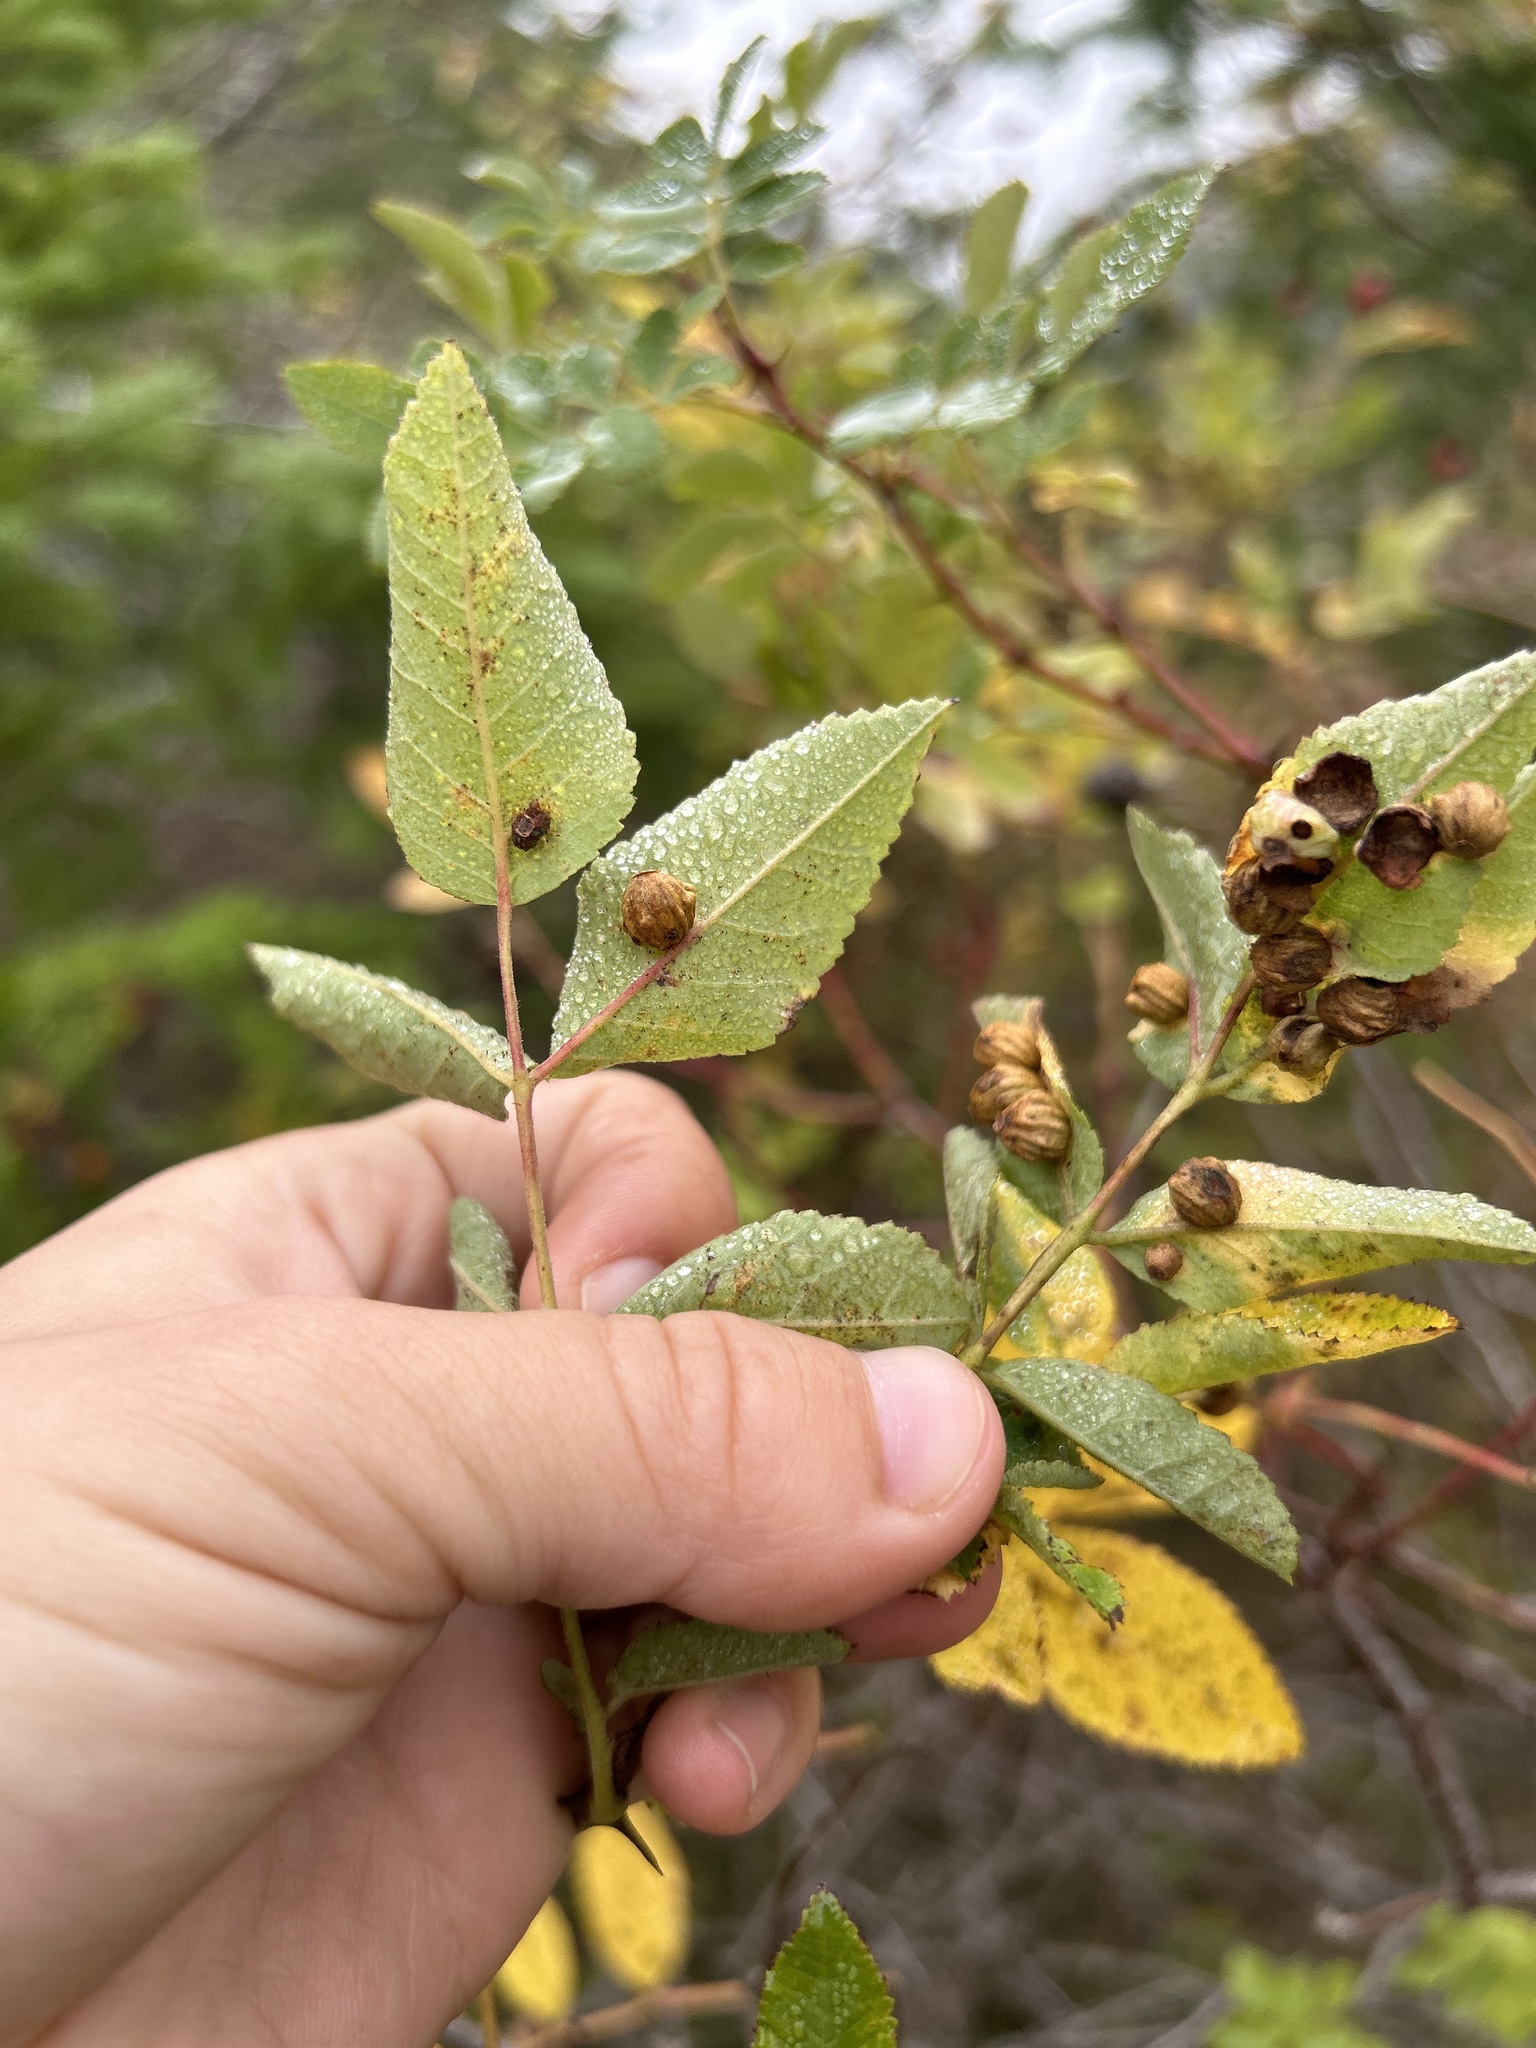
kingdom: Animalia
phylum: Arthropoda
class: Insecta
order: Hymenoptera
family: Cynipidae
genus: Diplolepis
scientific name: Diplolepis gracilis
